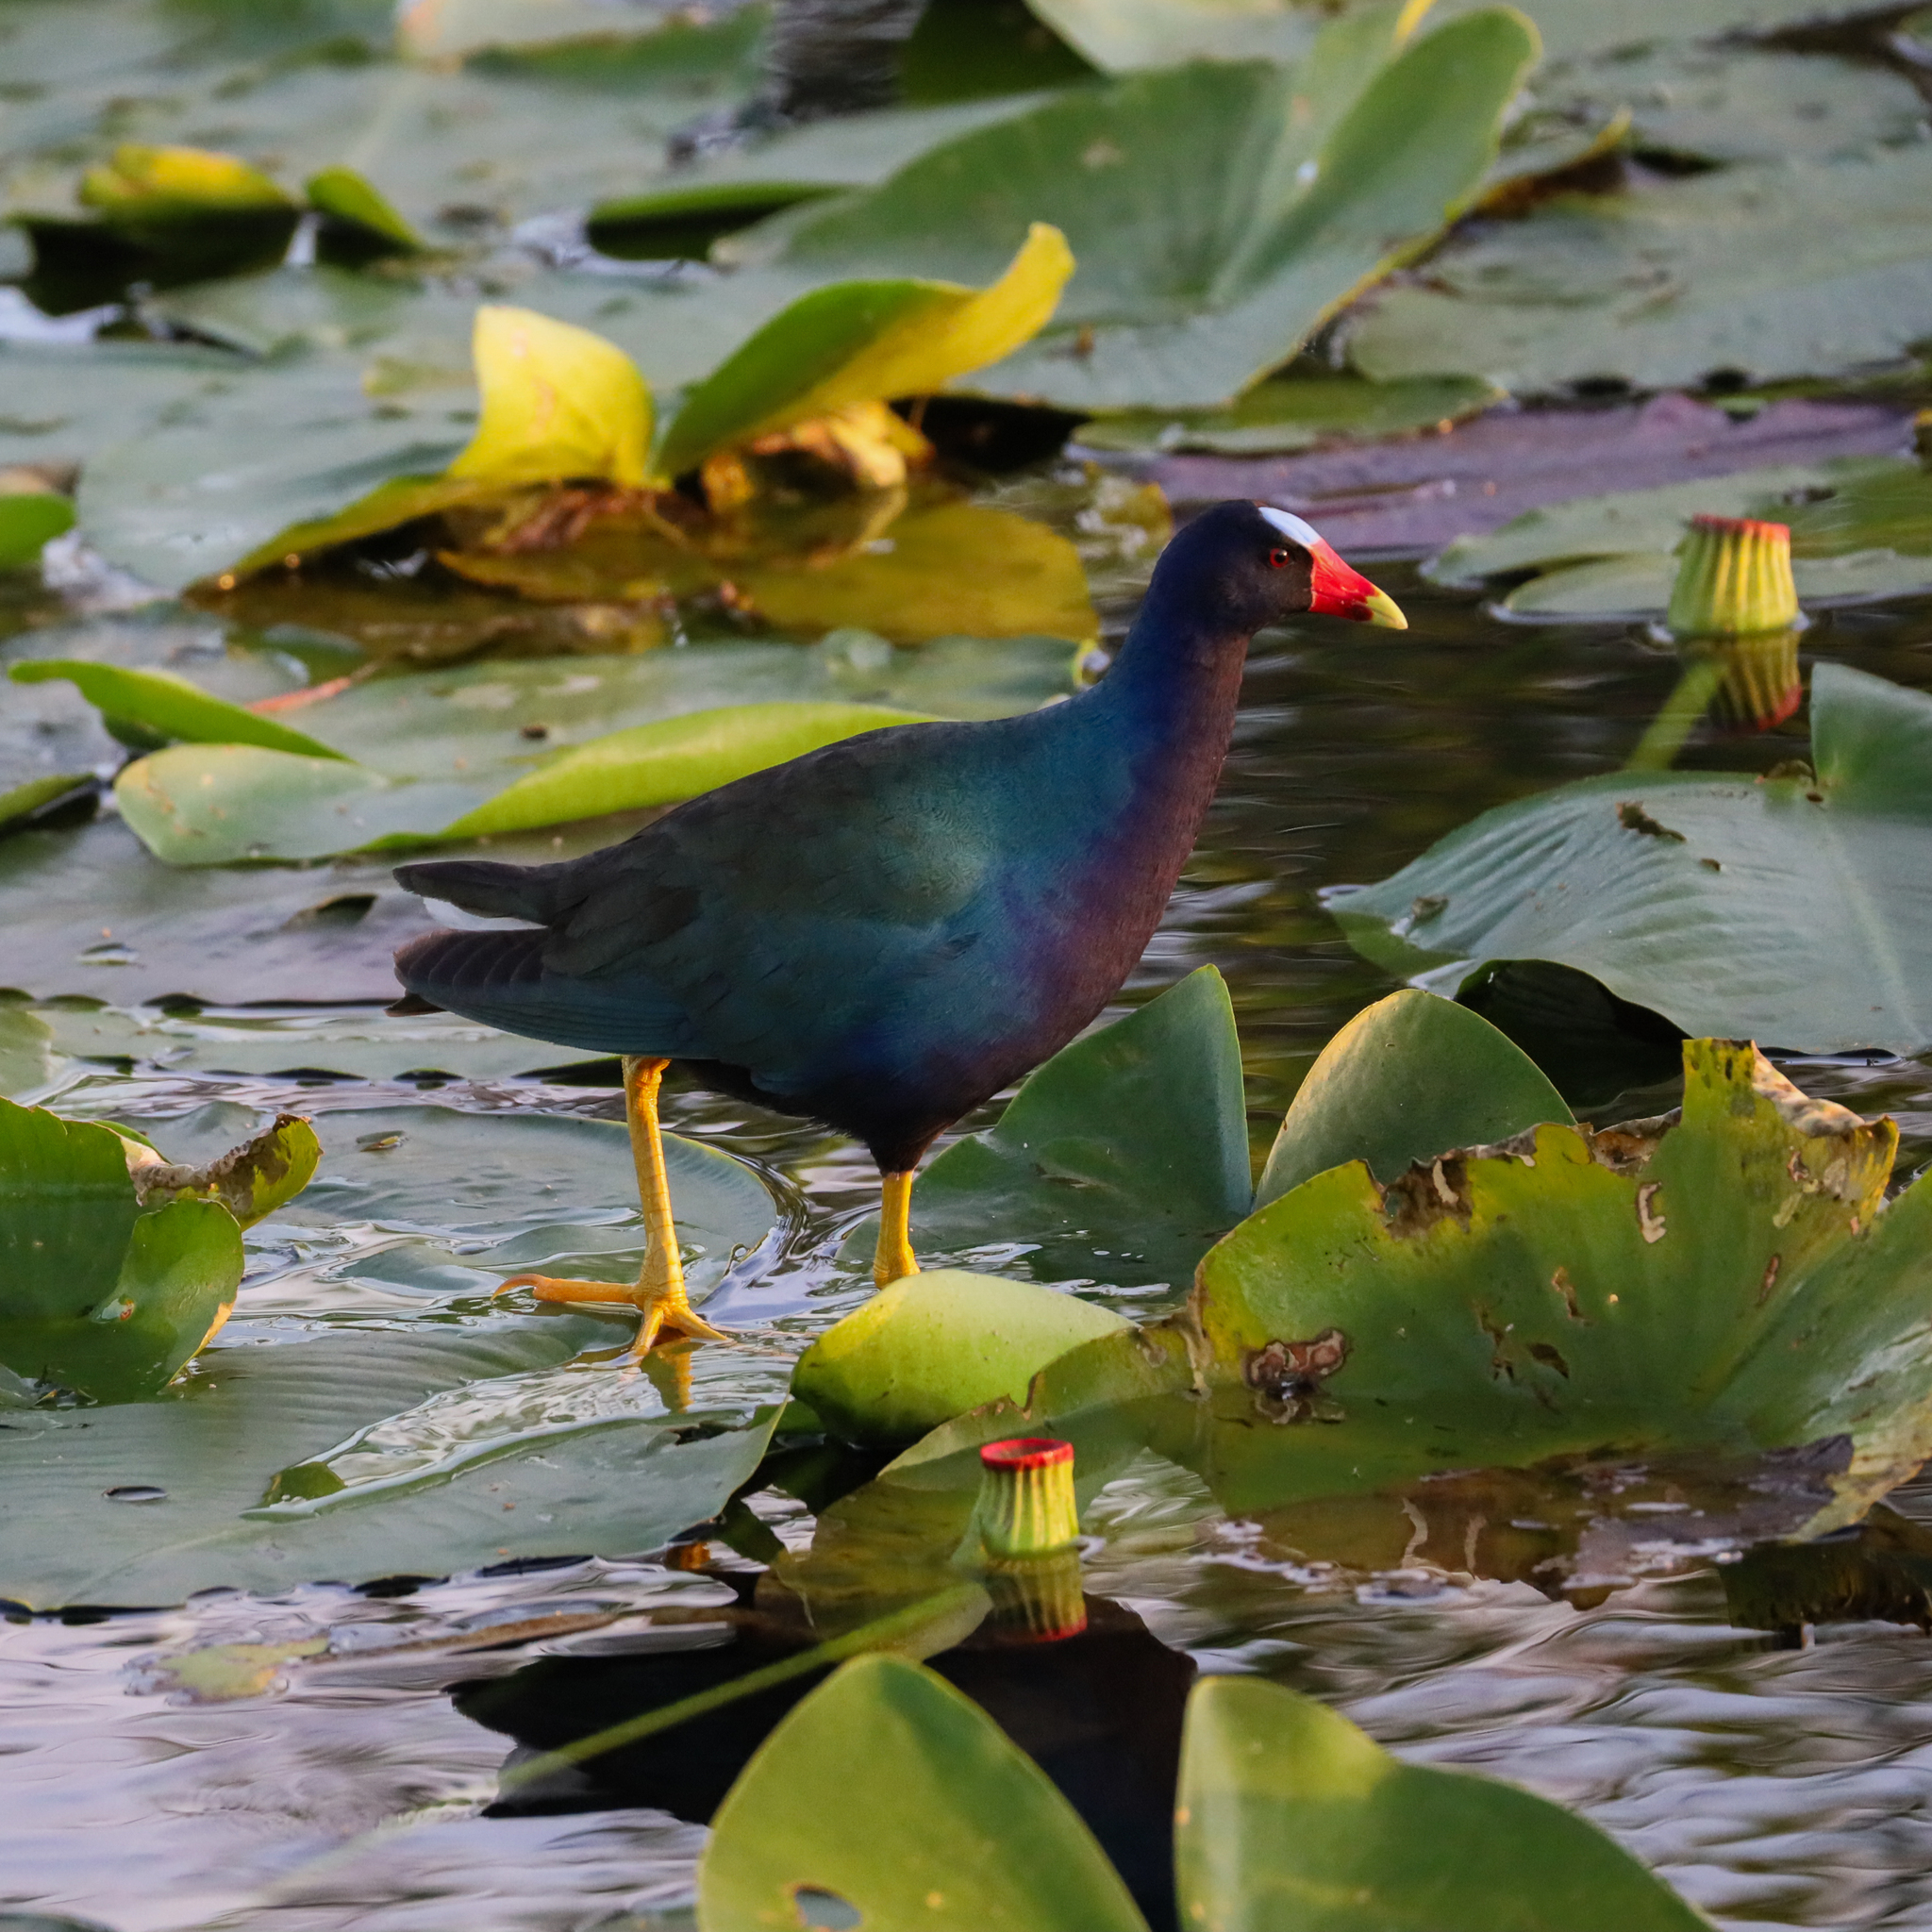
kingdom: Animalia
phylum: Chordata
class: Aves
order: Gruiformes
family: Rallidae
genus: Porphyrio
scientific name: Porphyrio martinica
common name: Purple gallinule
